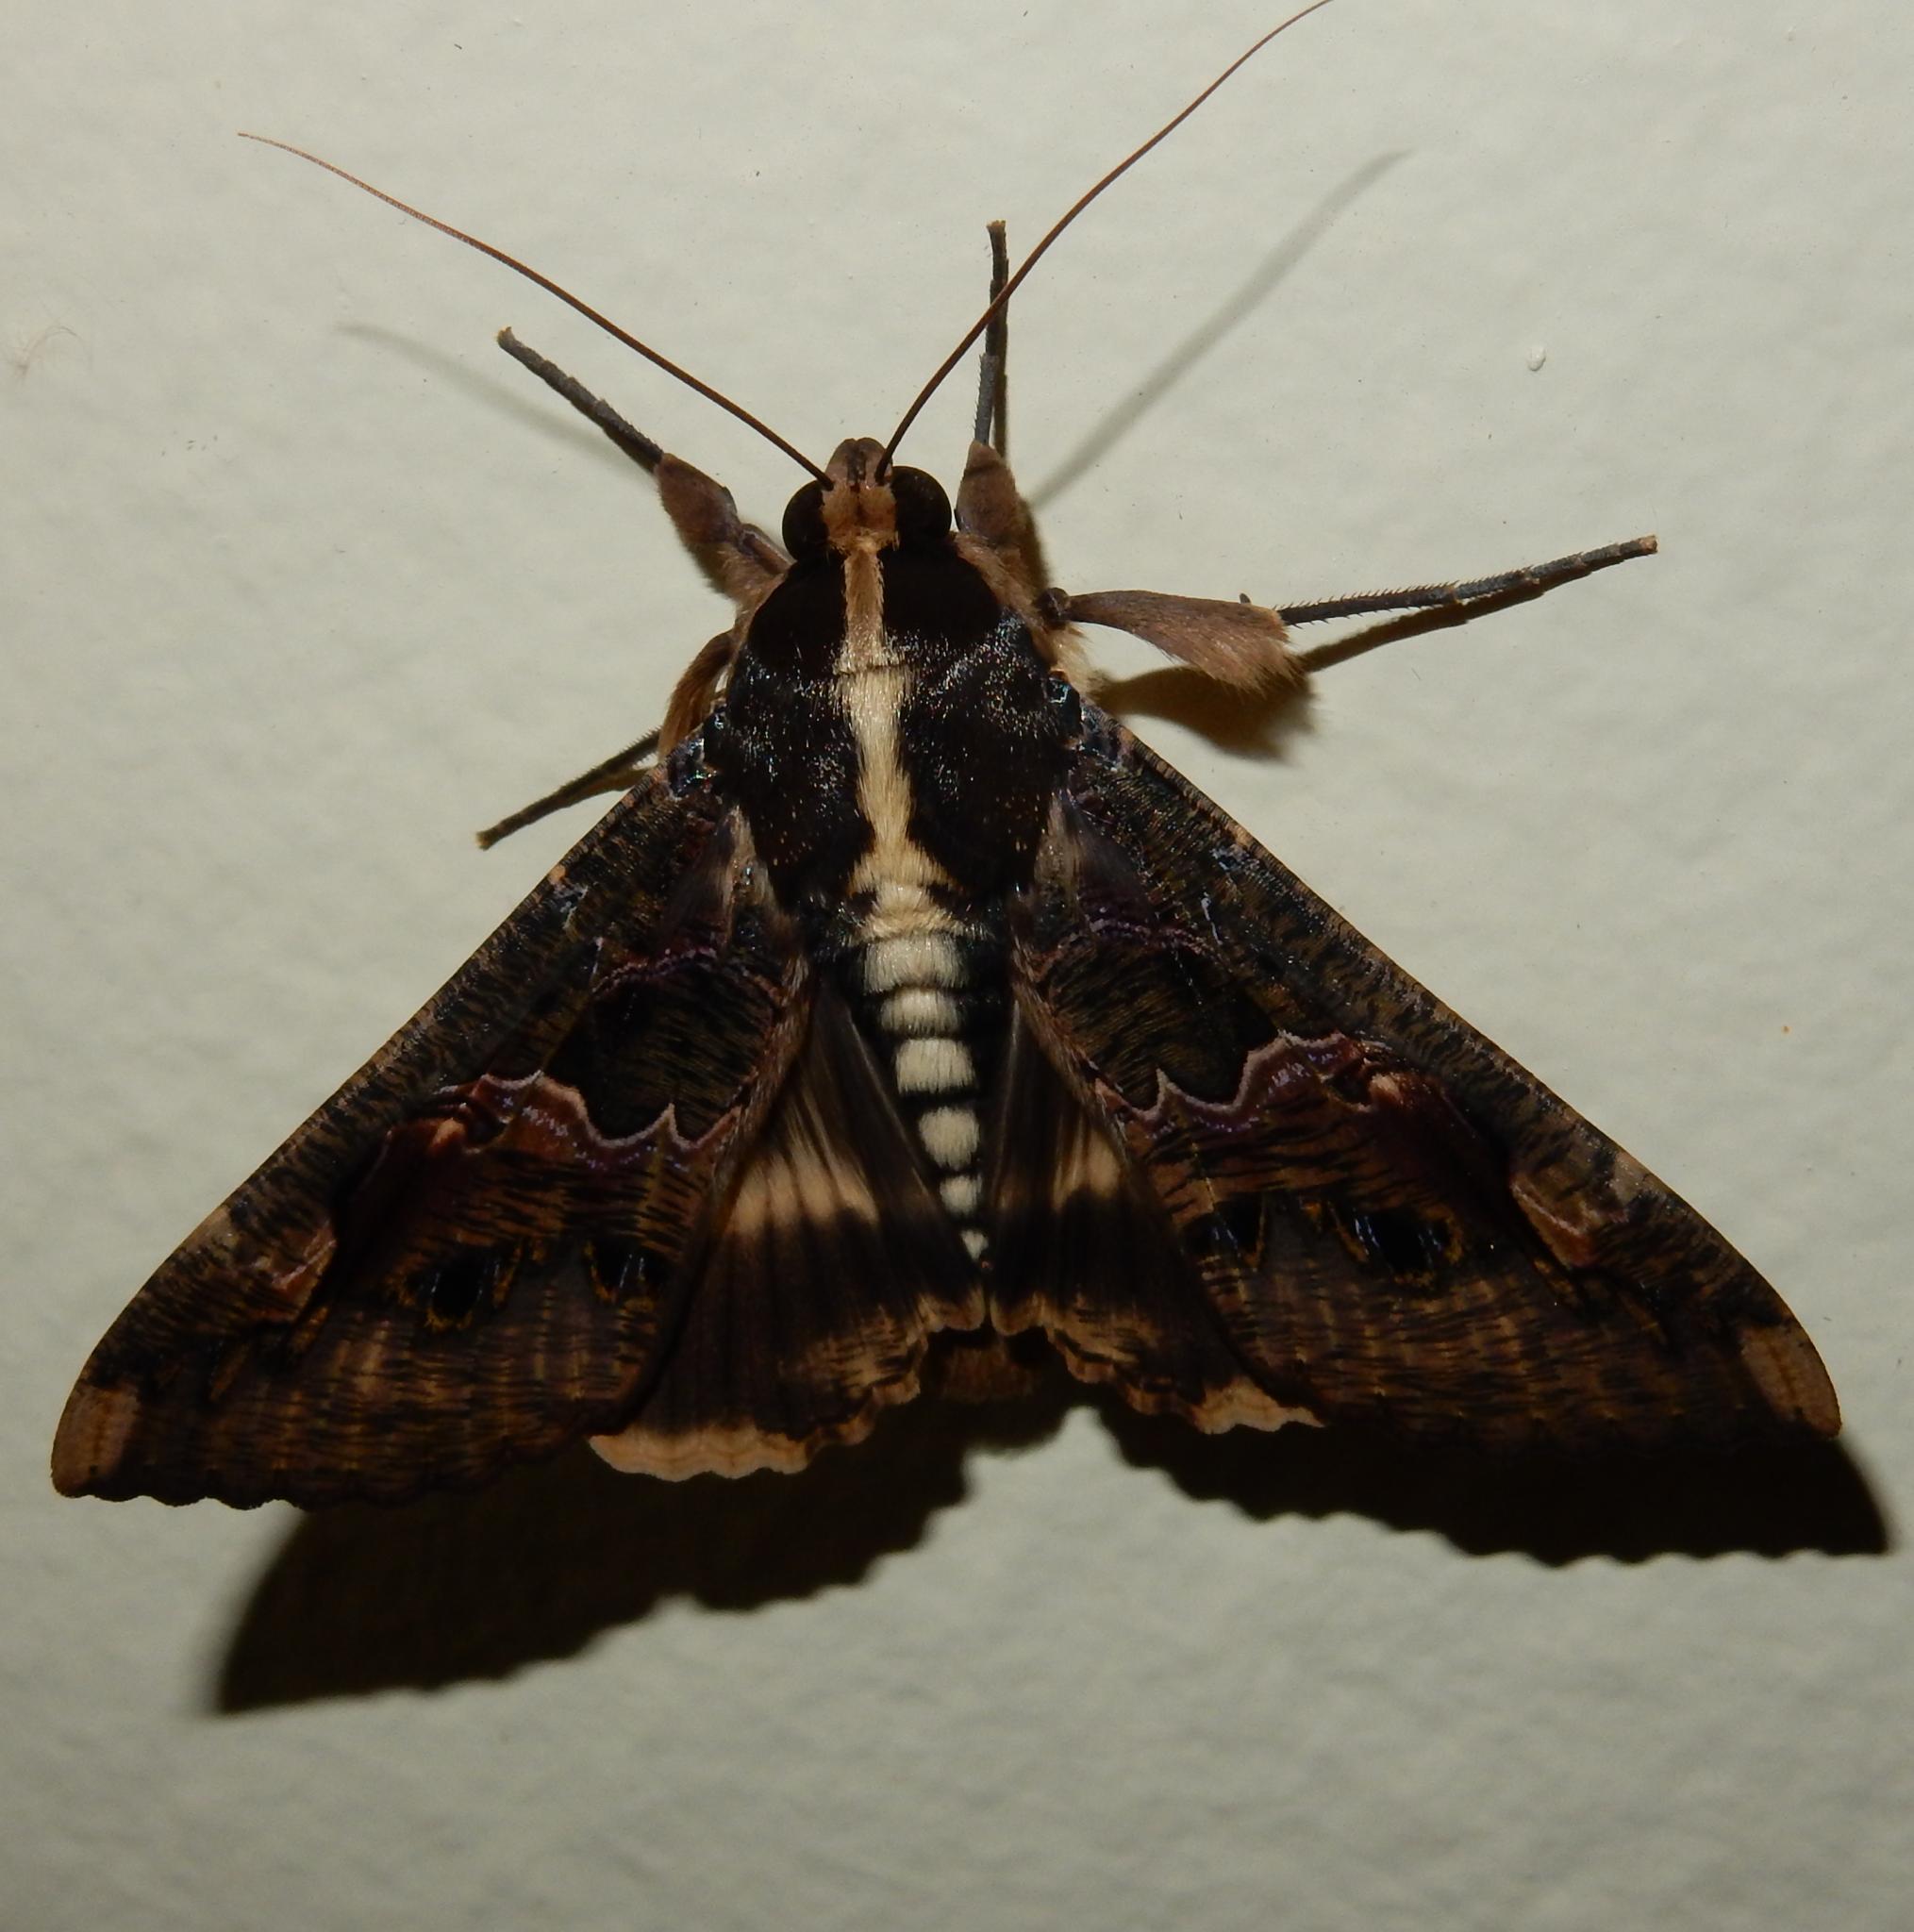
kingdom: Animalia
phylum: Arthropoda
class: Insecta
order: Lepidoptera
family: Erebidae
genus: Sphingomorpha
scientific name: Sphingomorpha chlorea
